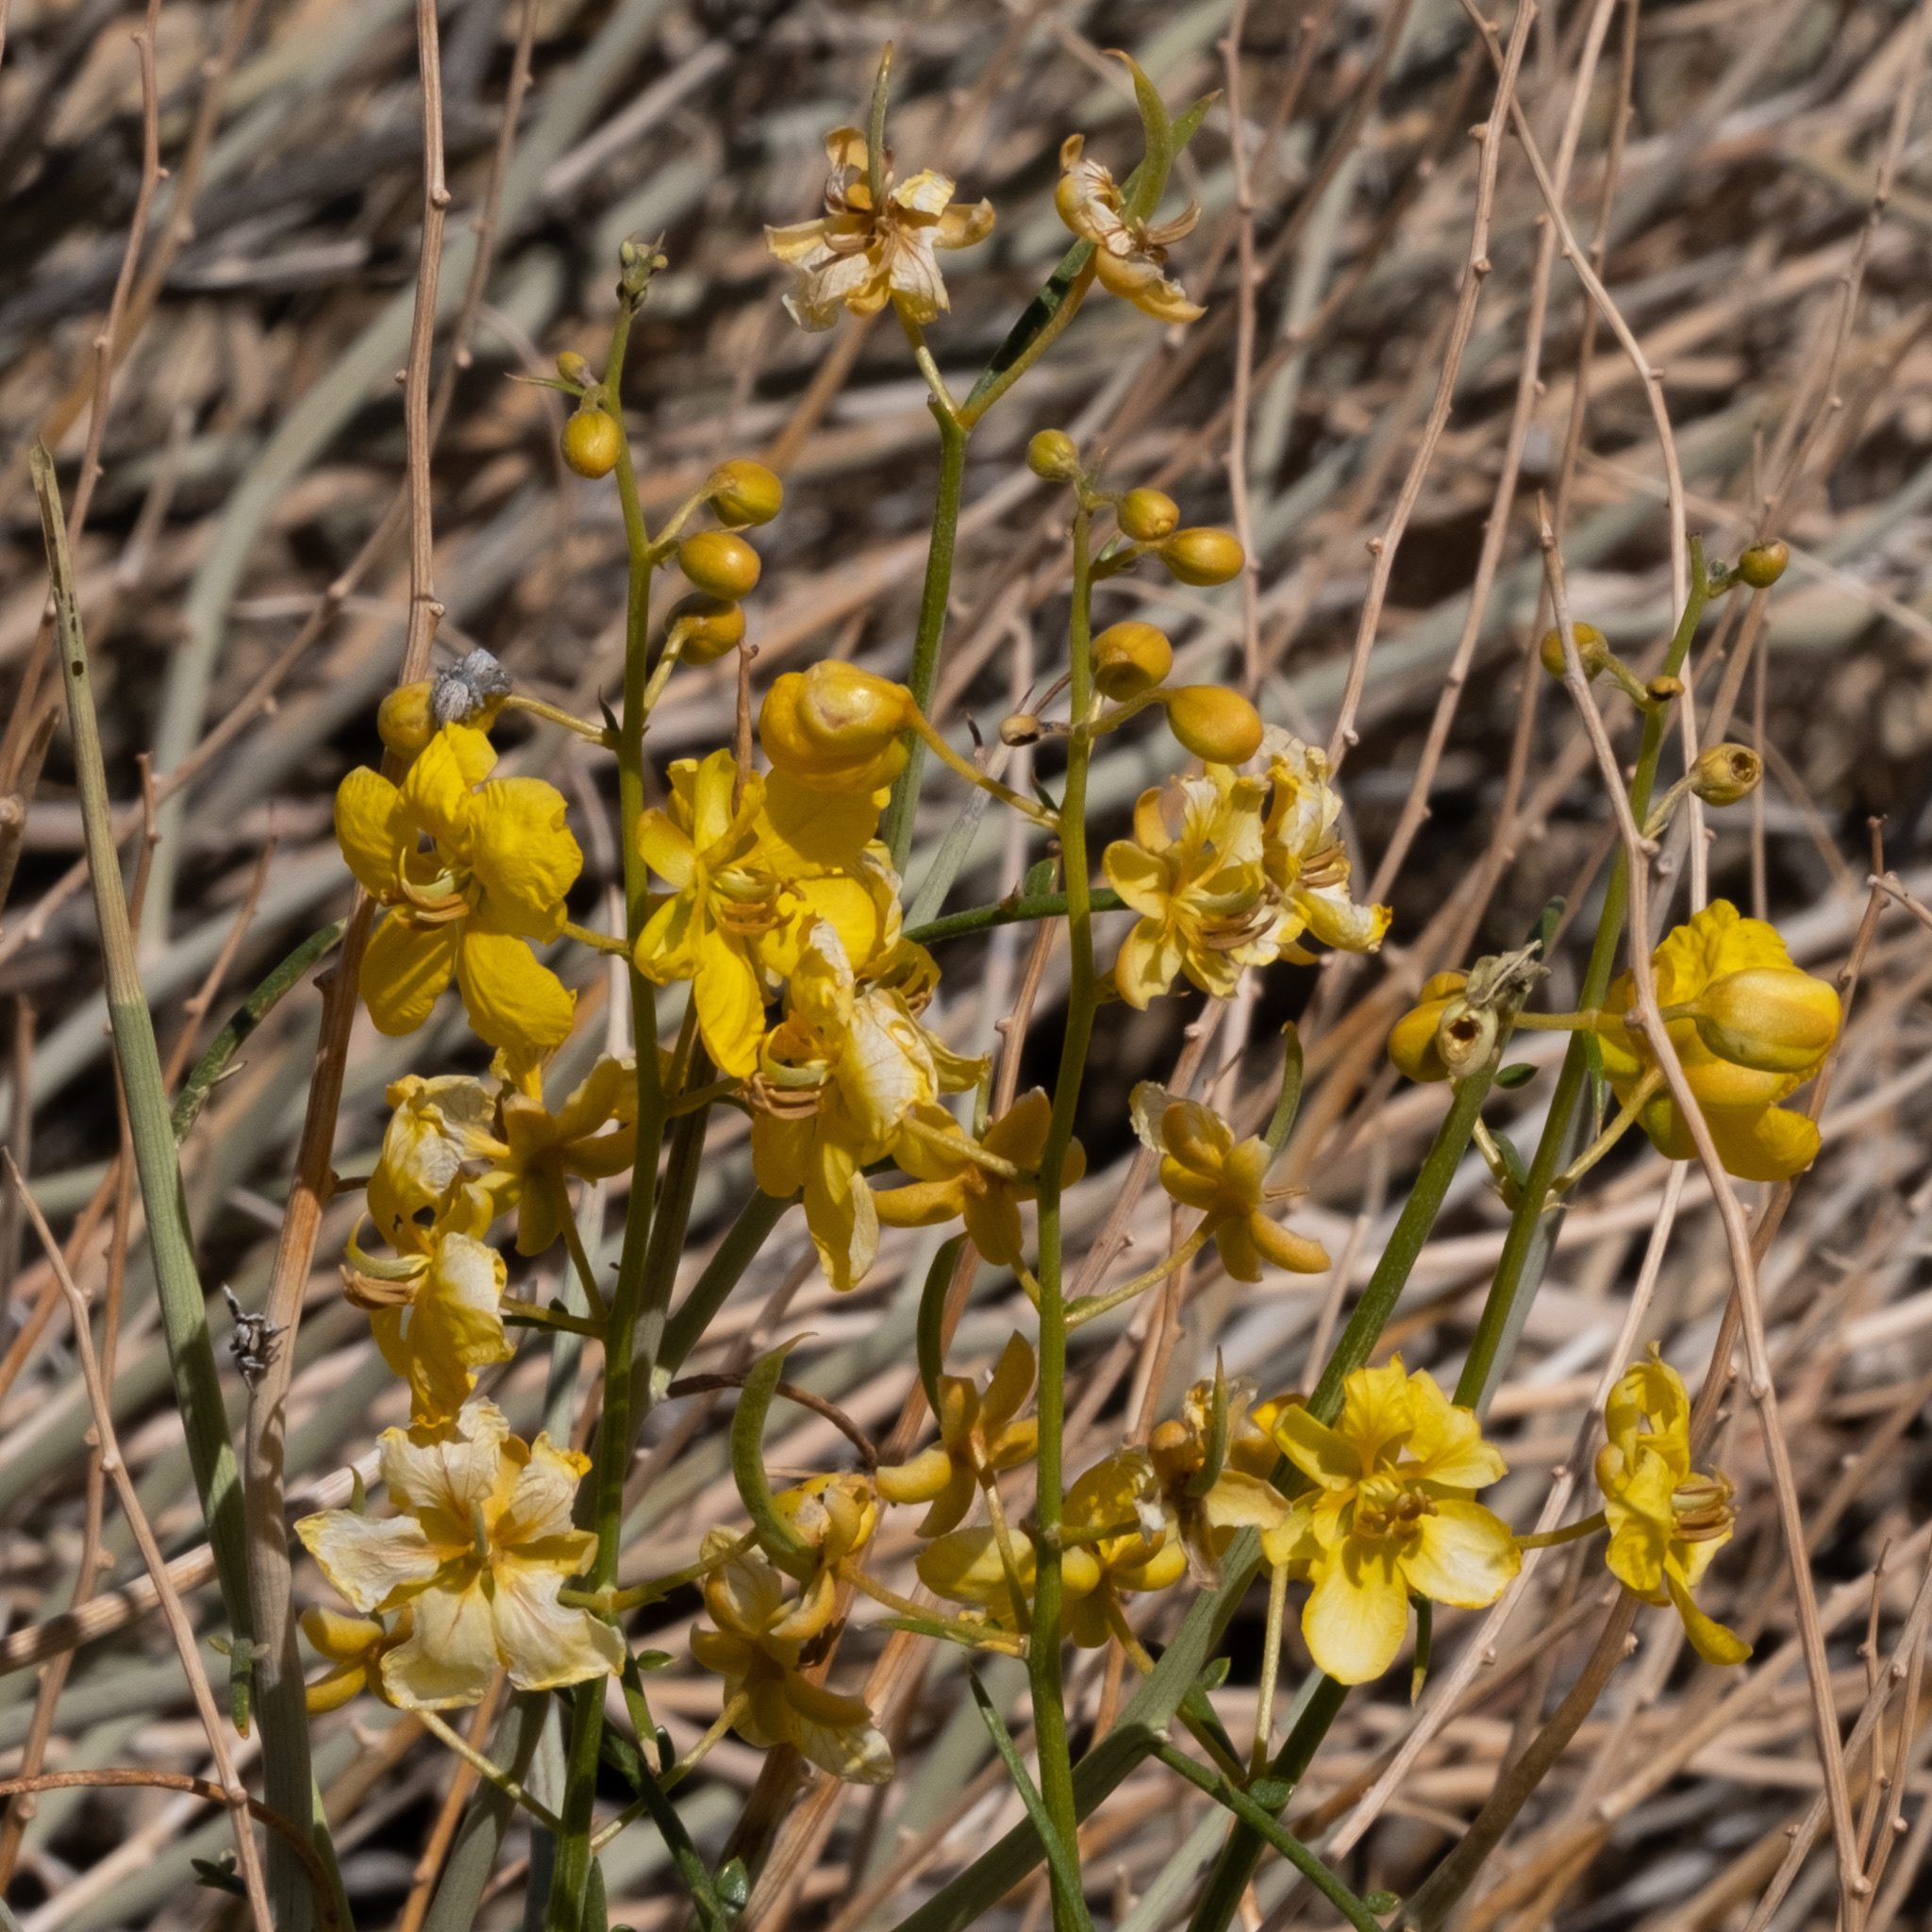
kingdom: Plantae
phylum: Tracheophyta
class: Magnoliopsida
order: Fabales
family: Fabaceae
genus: Senna
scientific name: Senna armata
